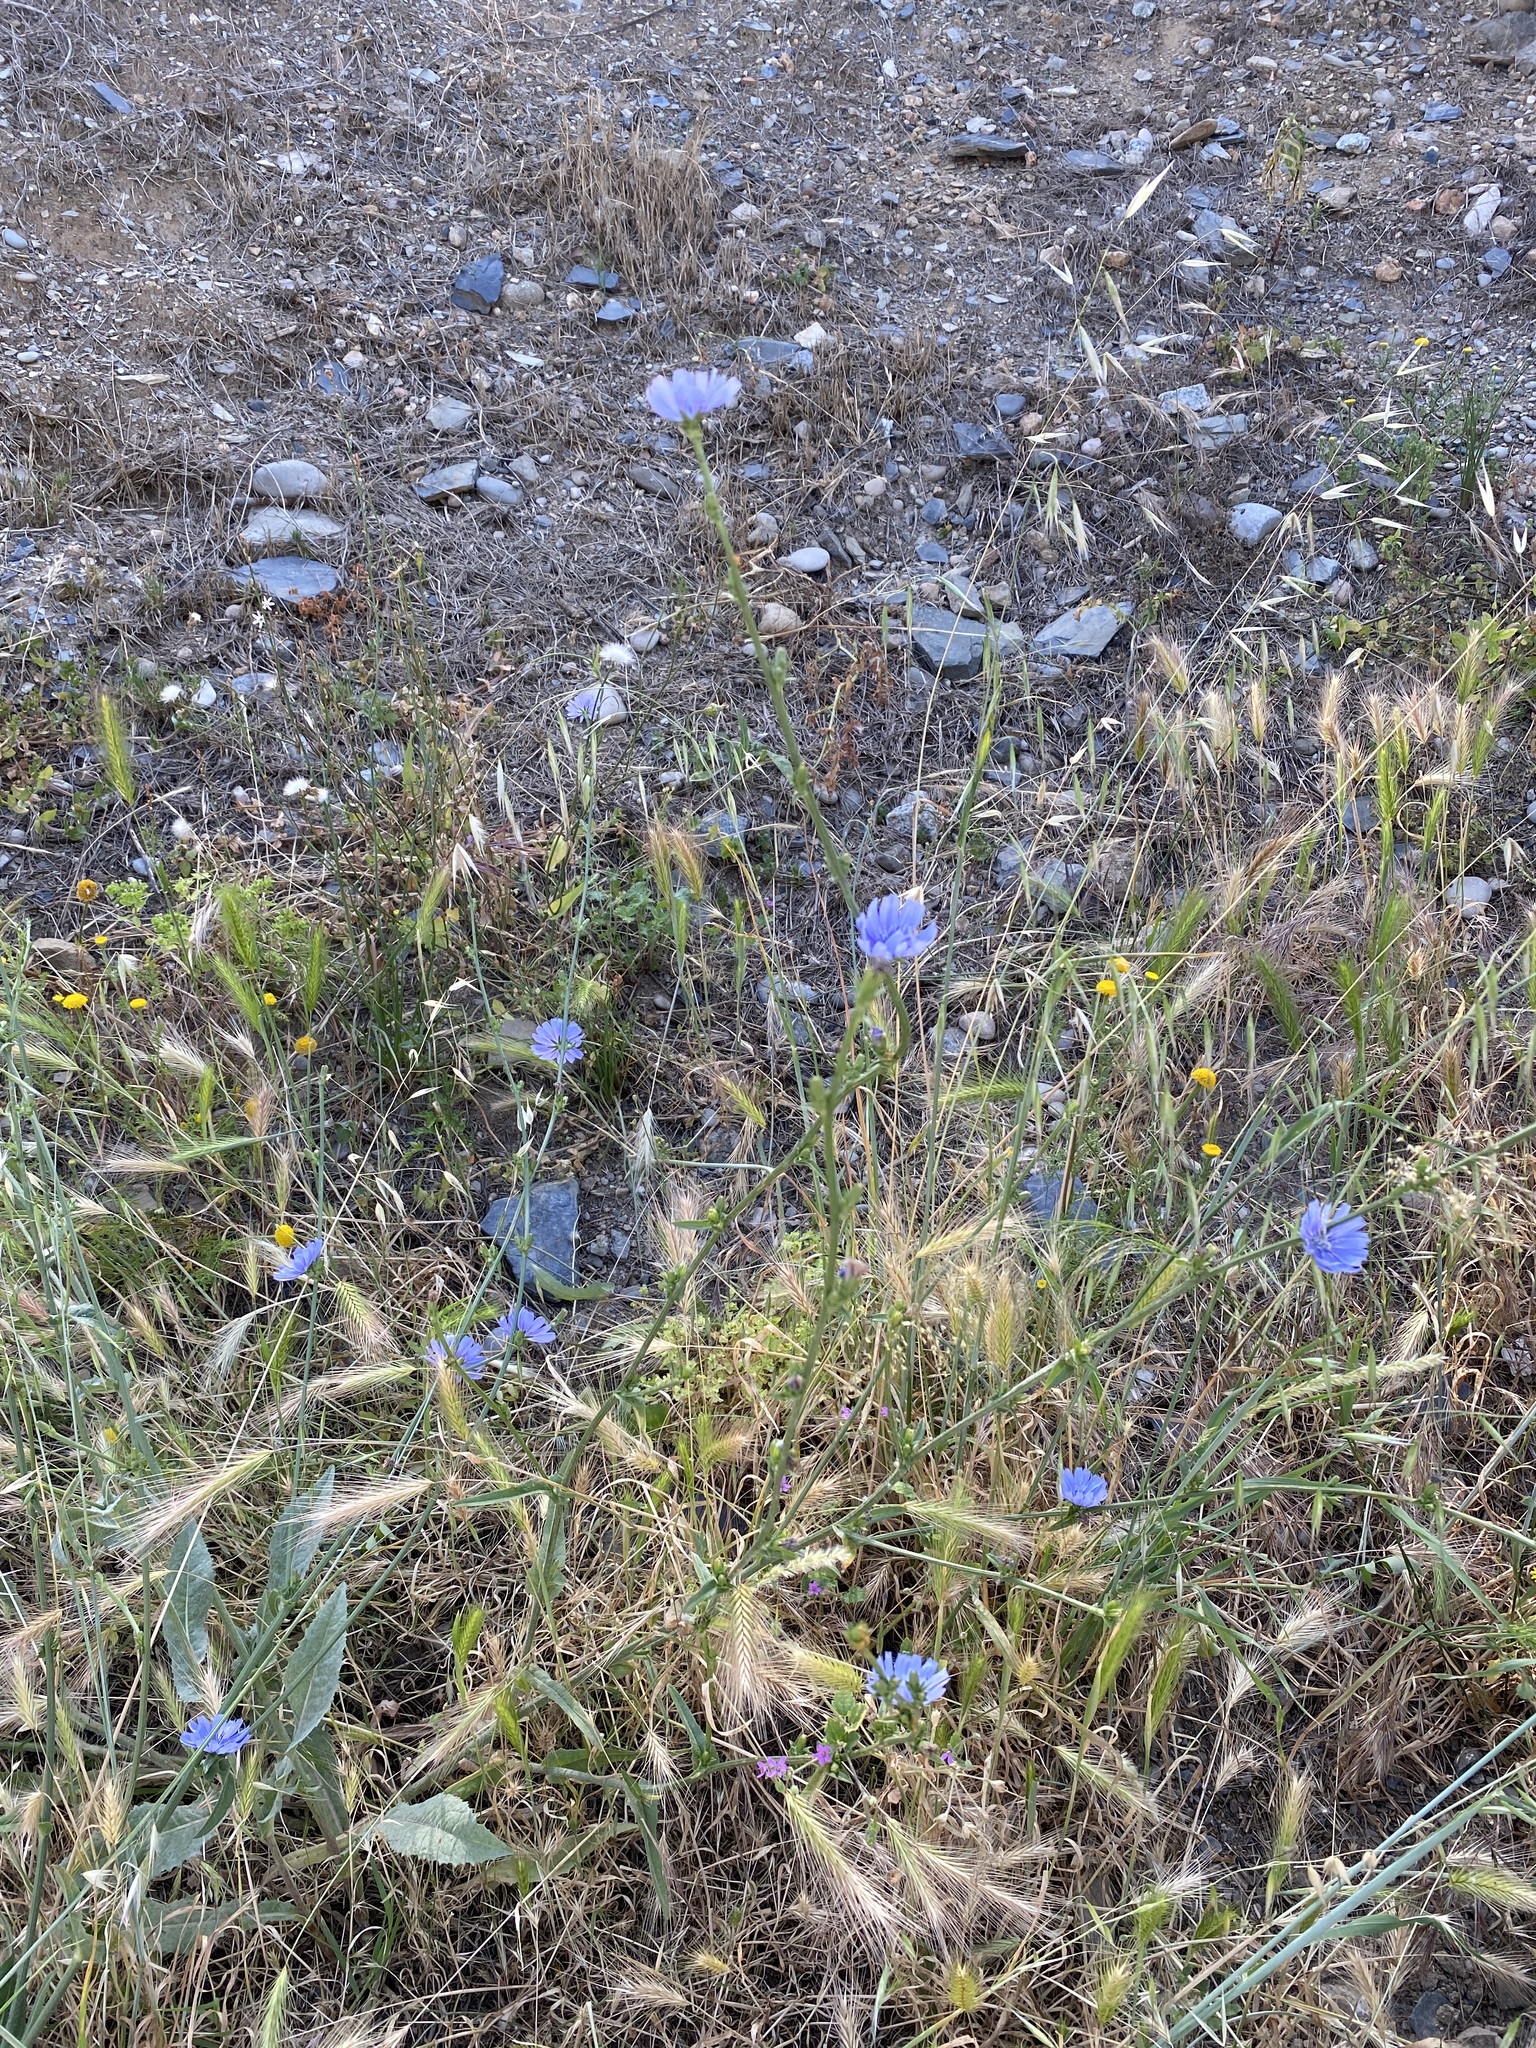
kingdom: Plantae
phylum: Tracheophyta
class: Magnoliopsida
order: Asterales
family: Asteraceae
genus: Cichorium
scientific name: Cichorium intybus
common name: Chicory
